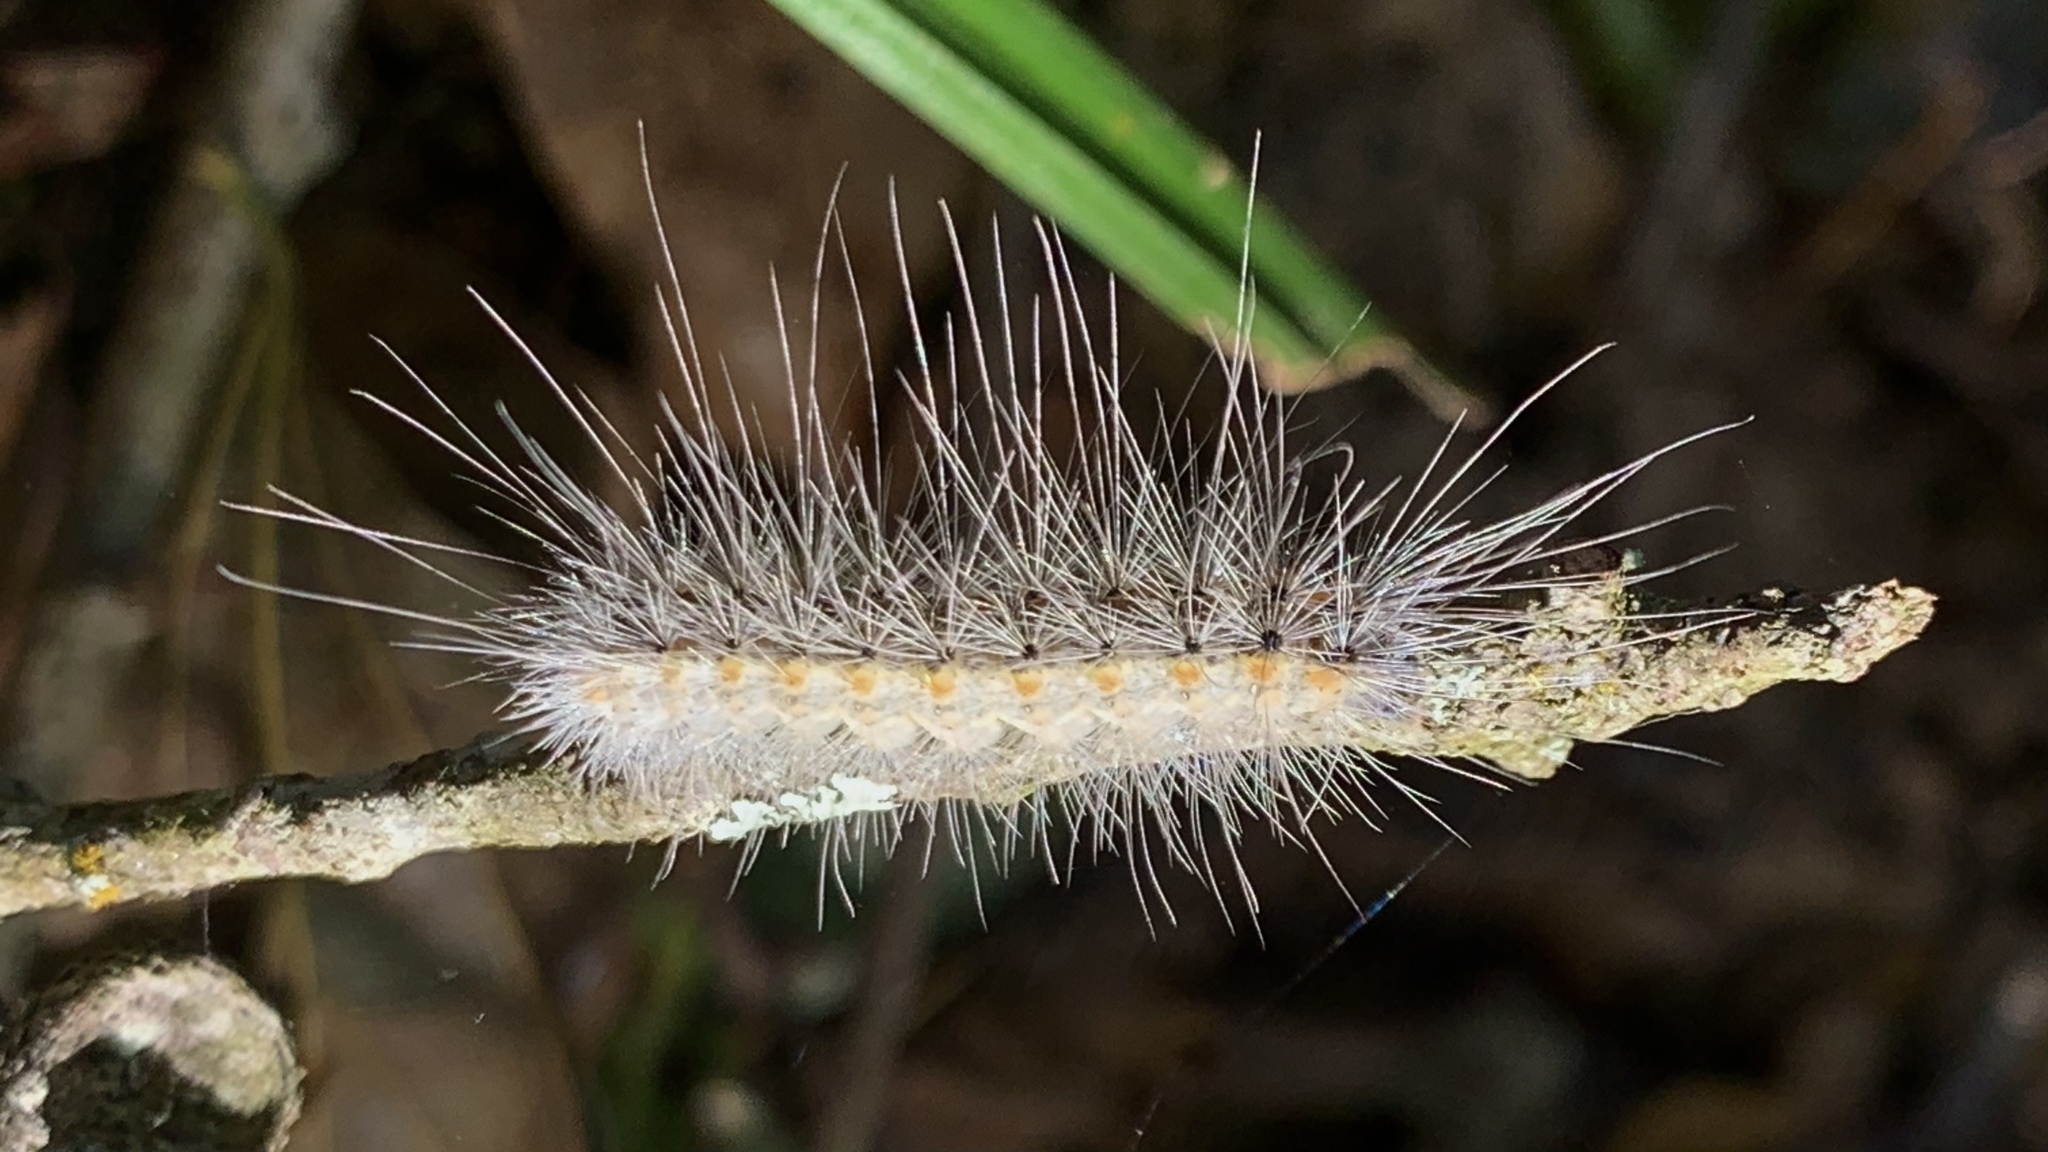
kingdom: Animalia
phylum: Arthropoda
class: Insecta
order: Lepidoptera
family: Erebidae
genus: Hyphantria
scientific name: Hyphantria cunea
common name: American white moth
